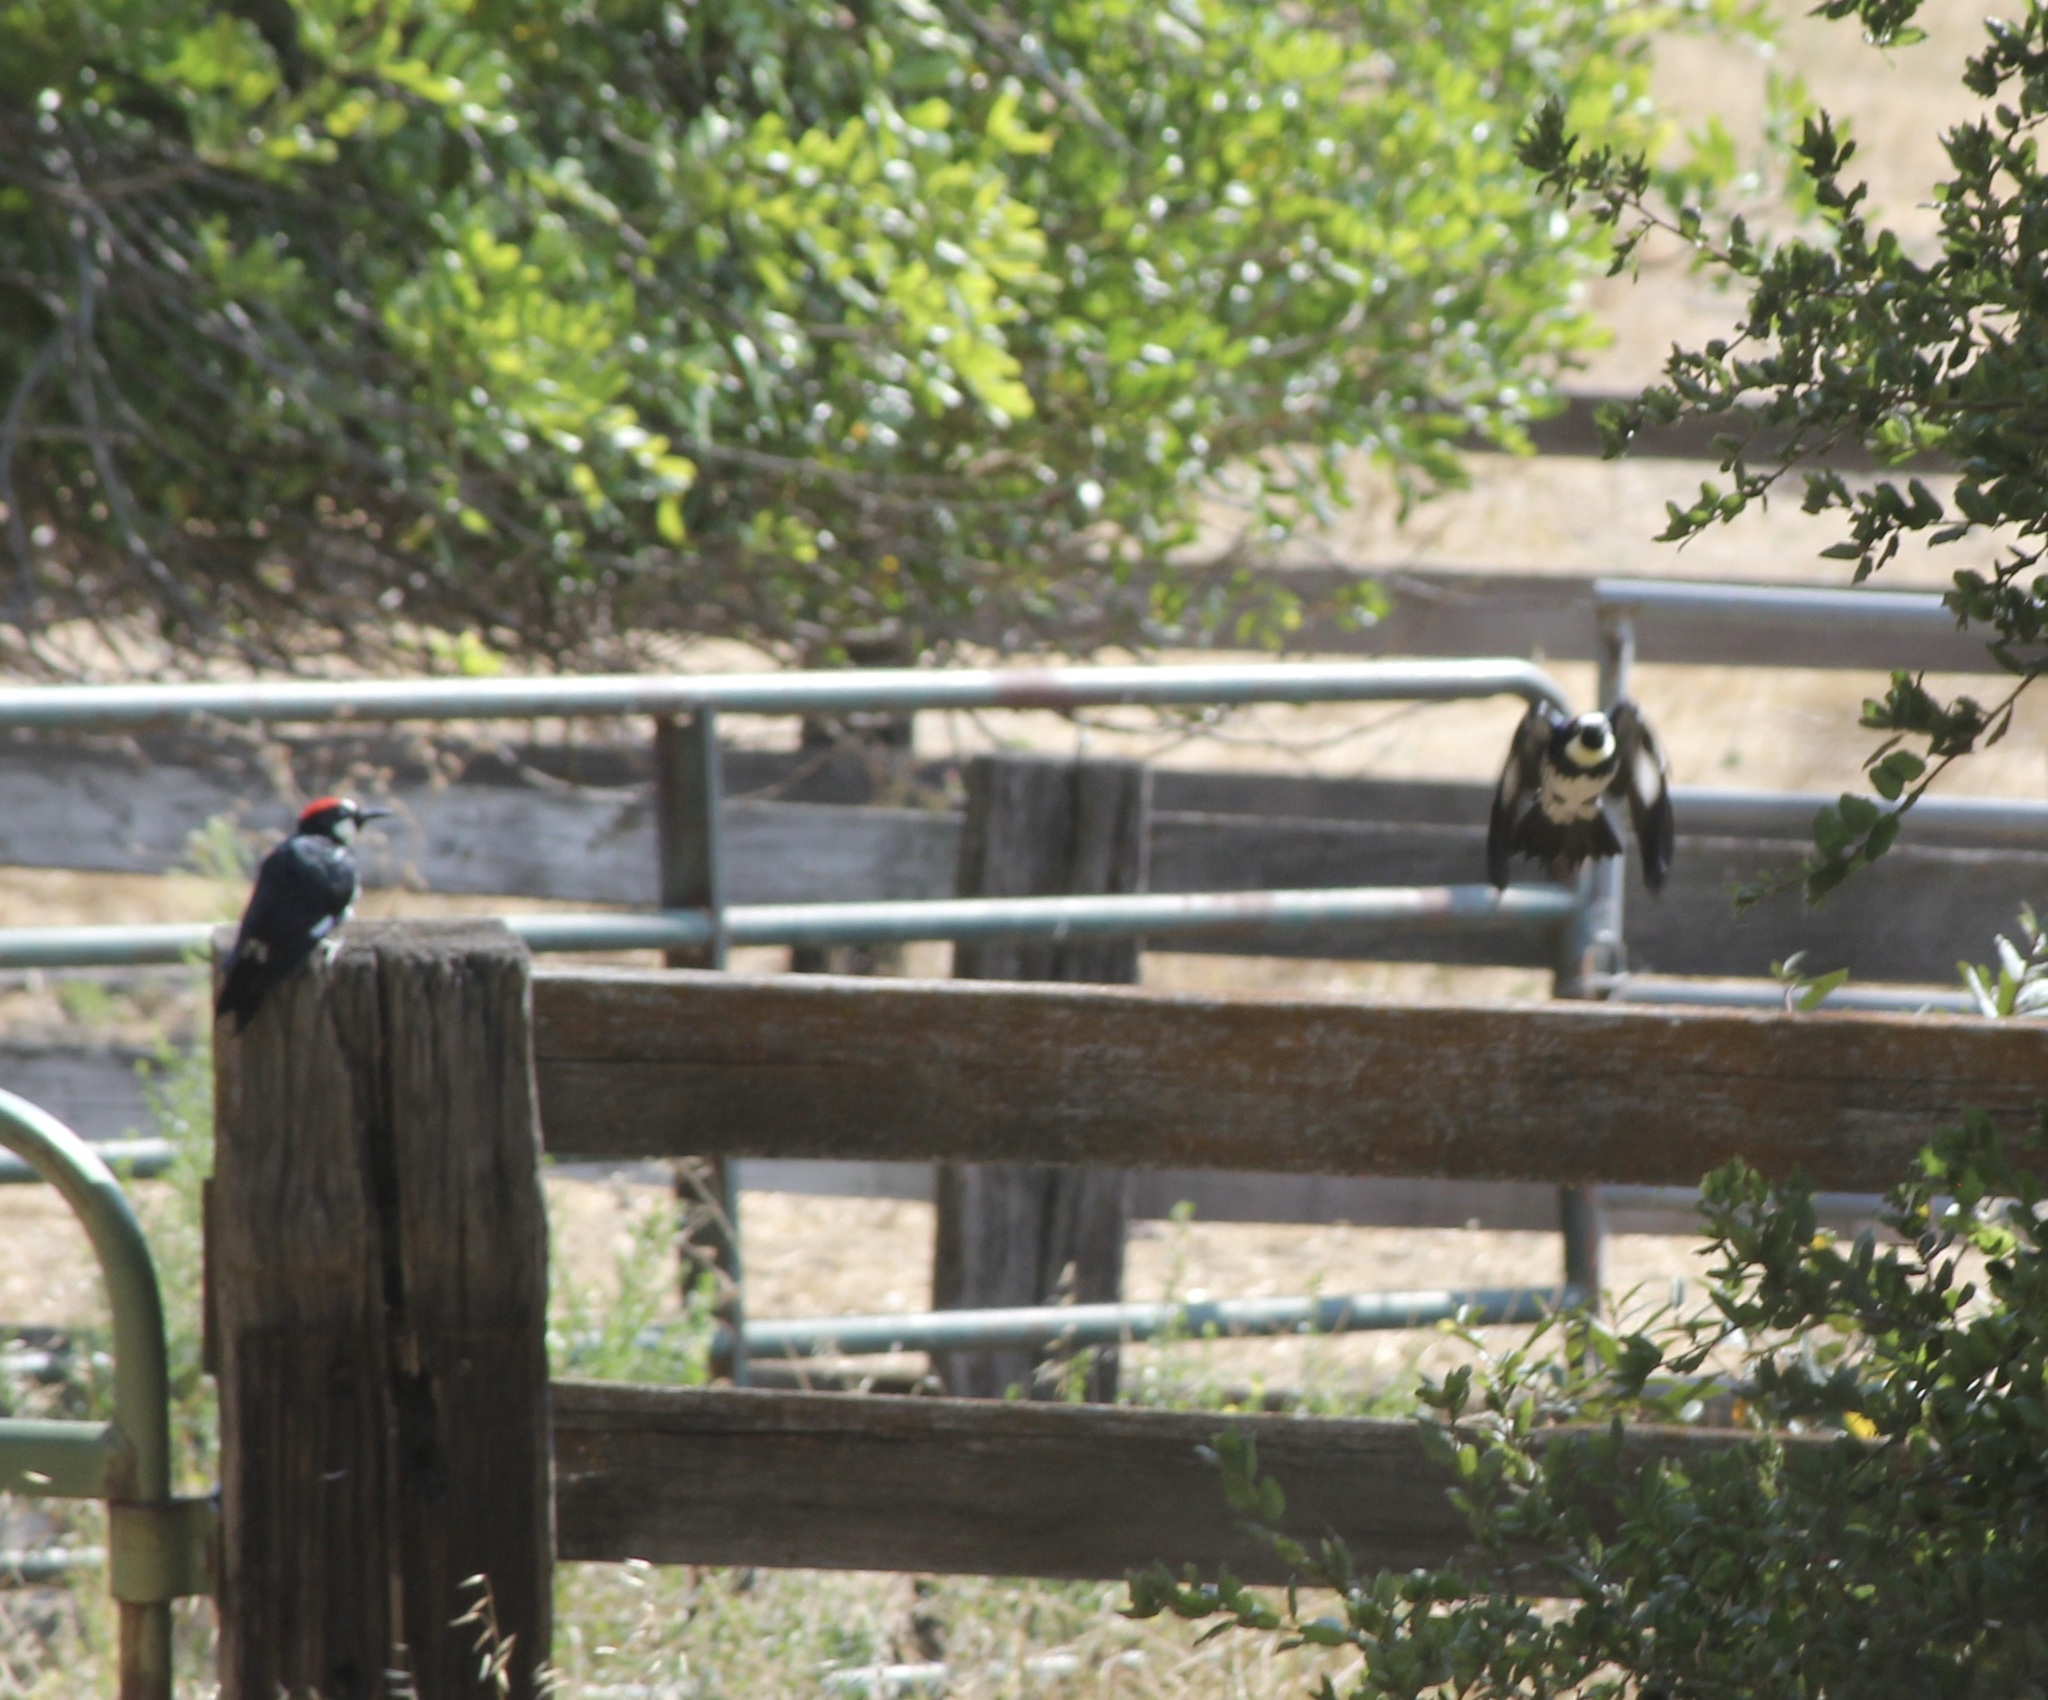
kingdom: Animalia
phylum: Chordata
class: Aves
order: Piciformes
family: Picidae
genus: Melanerpes
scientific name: Melanerpes formicivorus
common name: Acorn woodpecker
